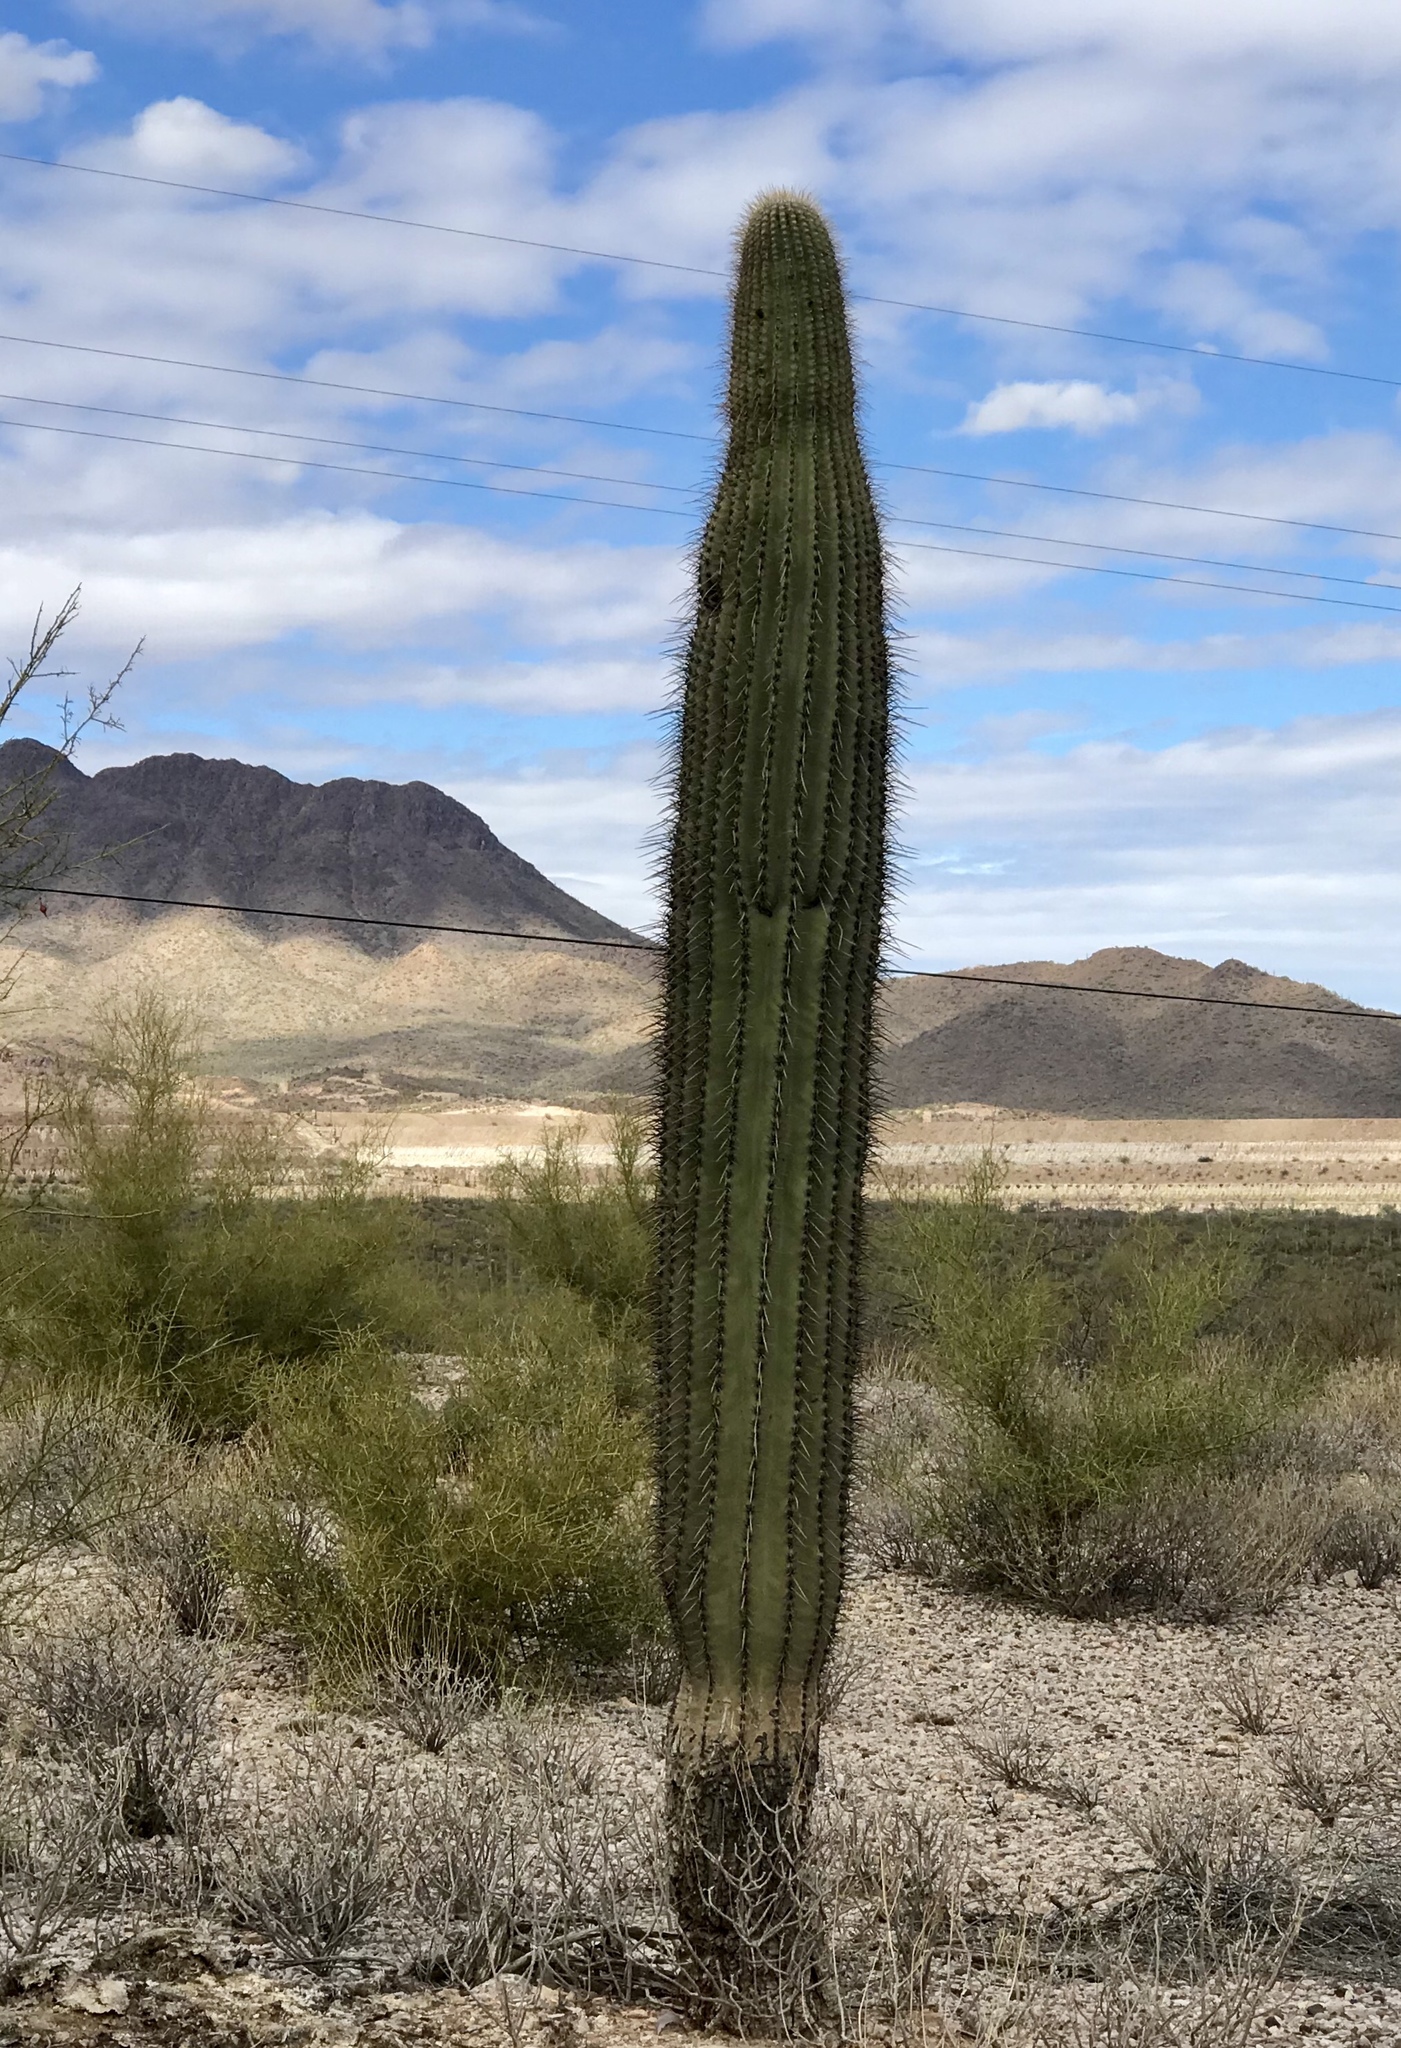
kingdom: Plantae
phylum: Tracheophyta
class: Magnoliopsida
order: Caryophyllales
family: Cactaceae
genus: Carnegiea
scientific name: Carnegiea gigantea
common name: Saguaro
